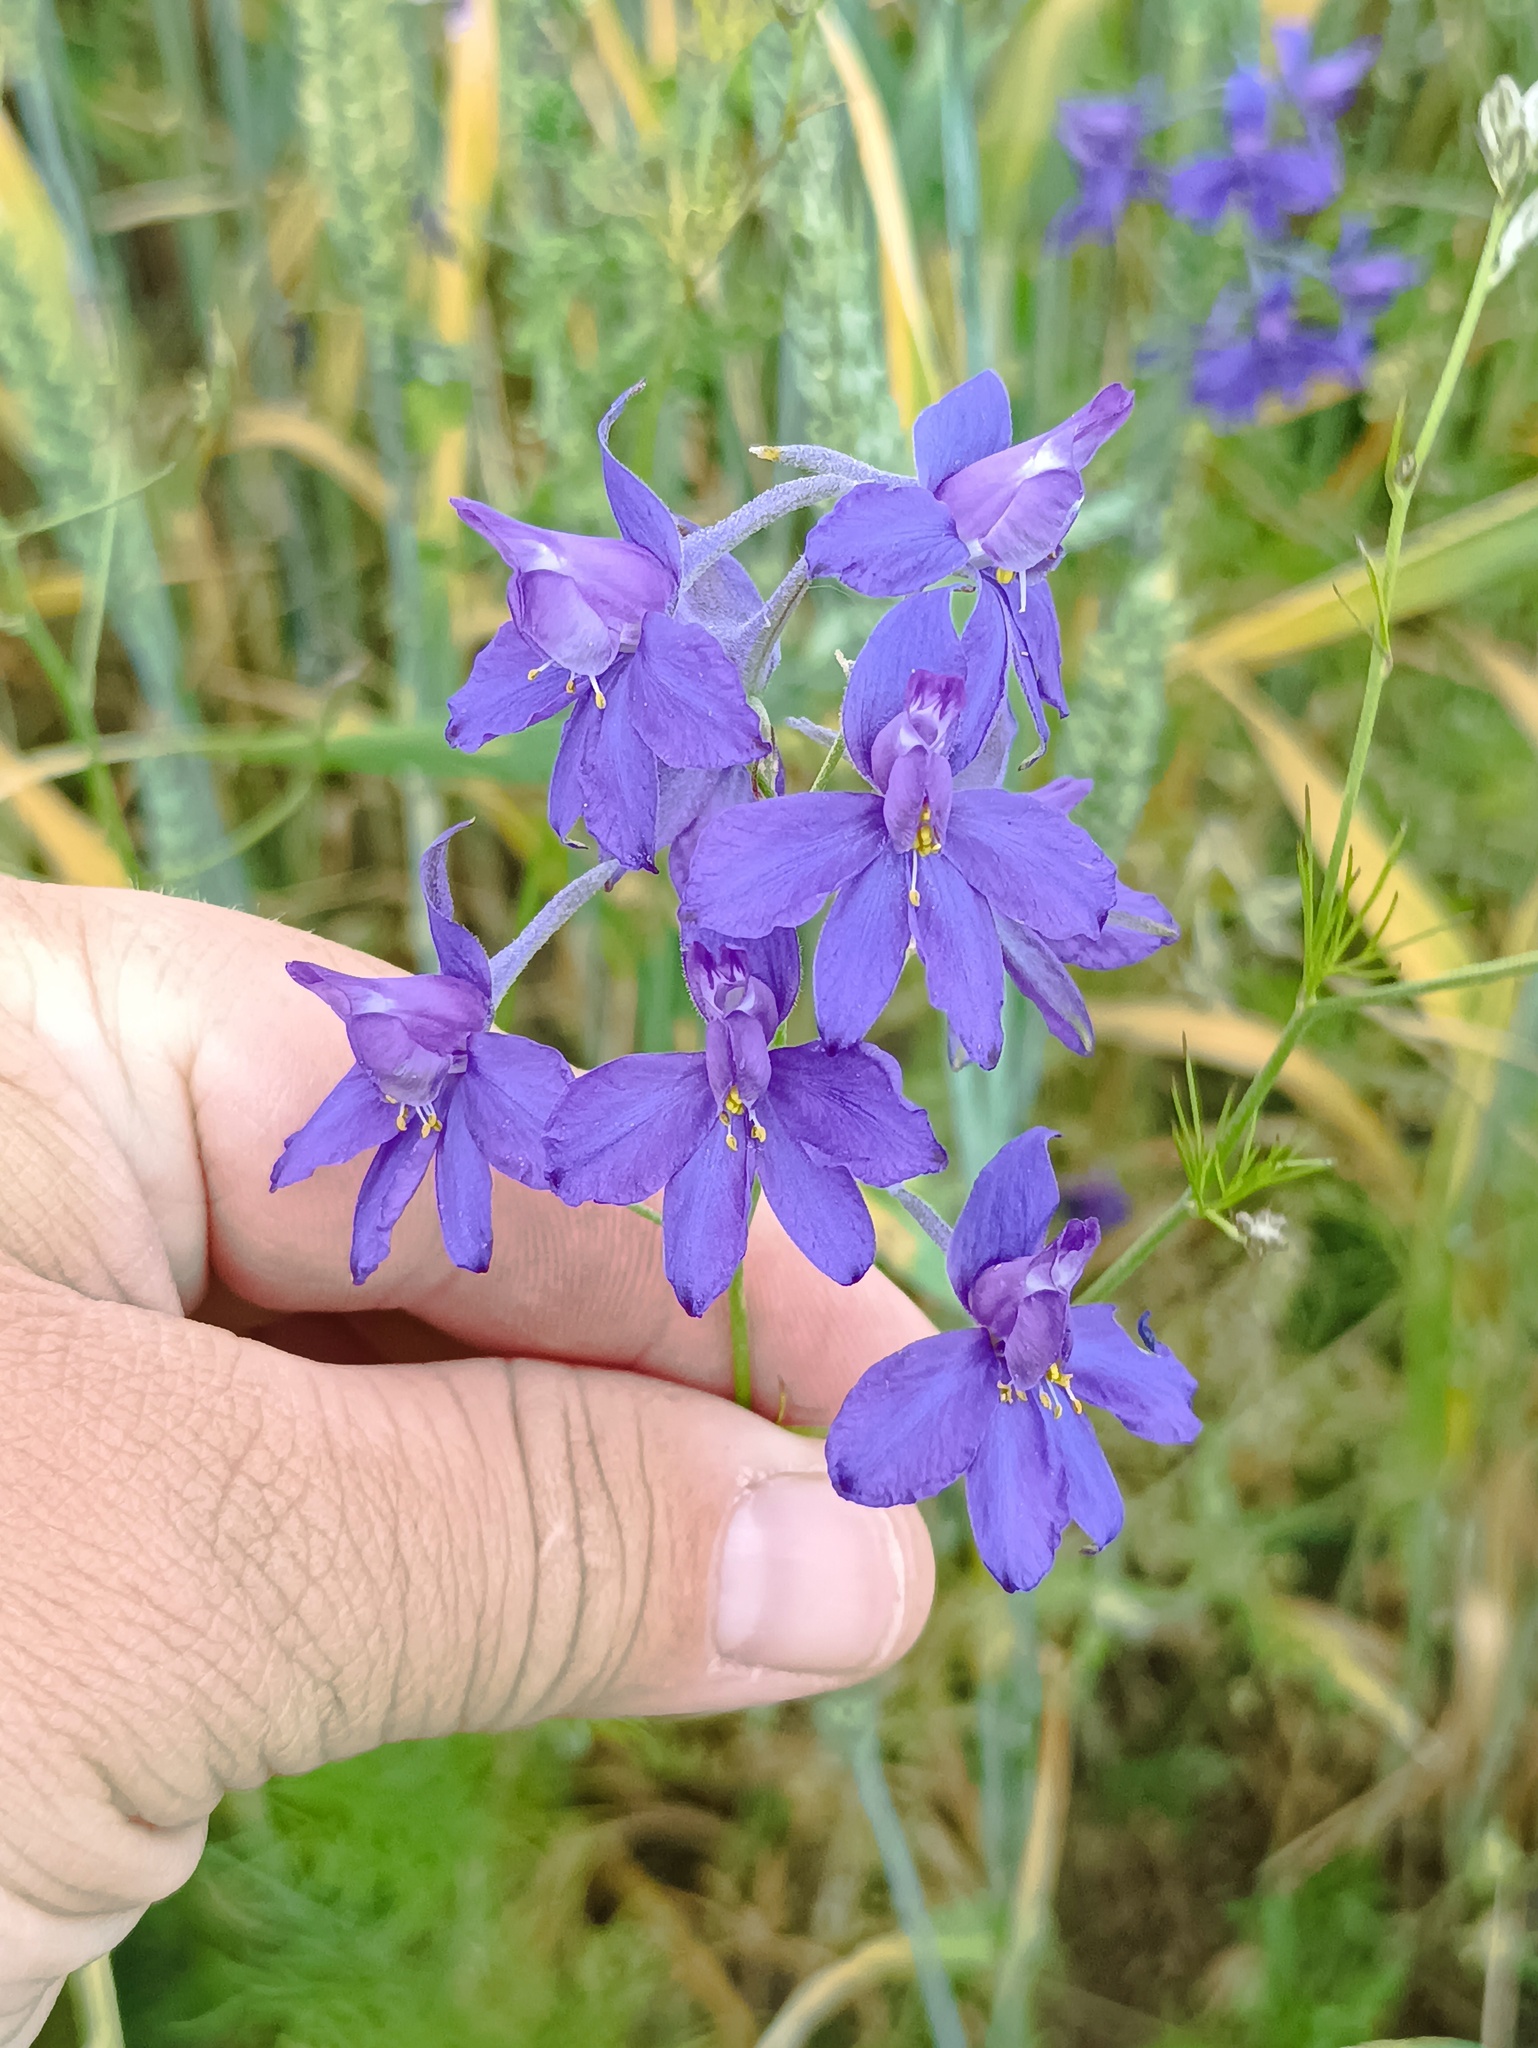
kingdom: Plantae
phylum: Tracheophyta
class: Magnoliopsida
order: Ranunculales
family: Ranunculaceae
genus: Delphinium
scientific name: Delphinium consolida
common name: Branching larkspur
